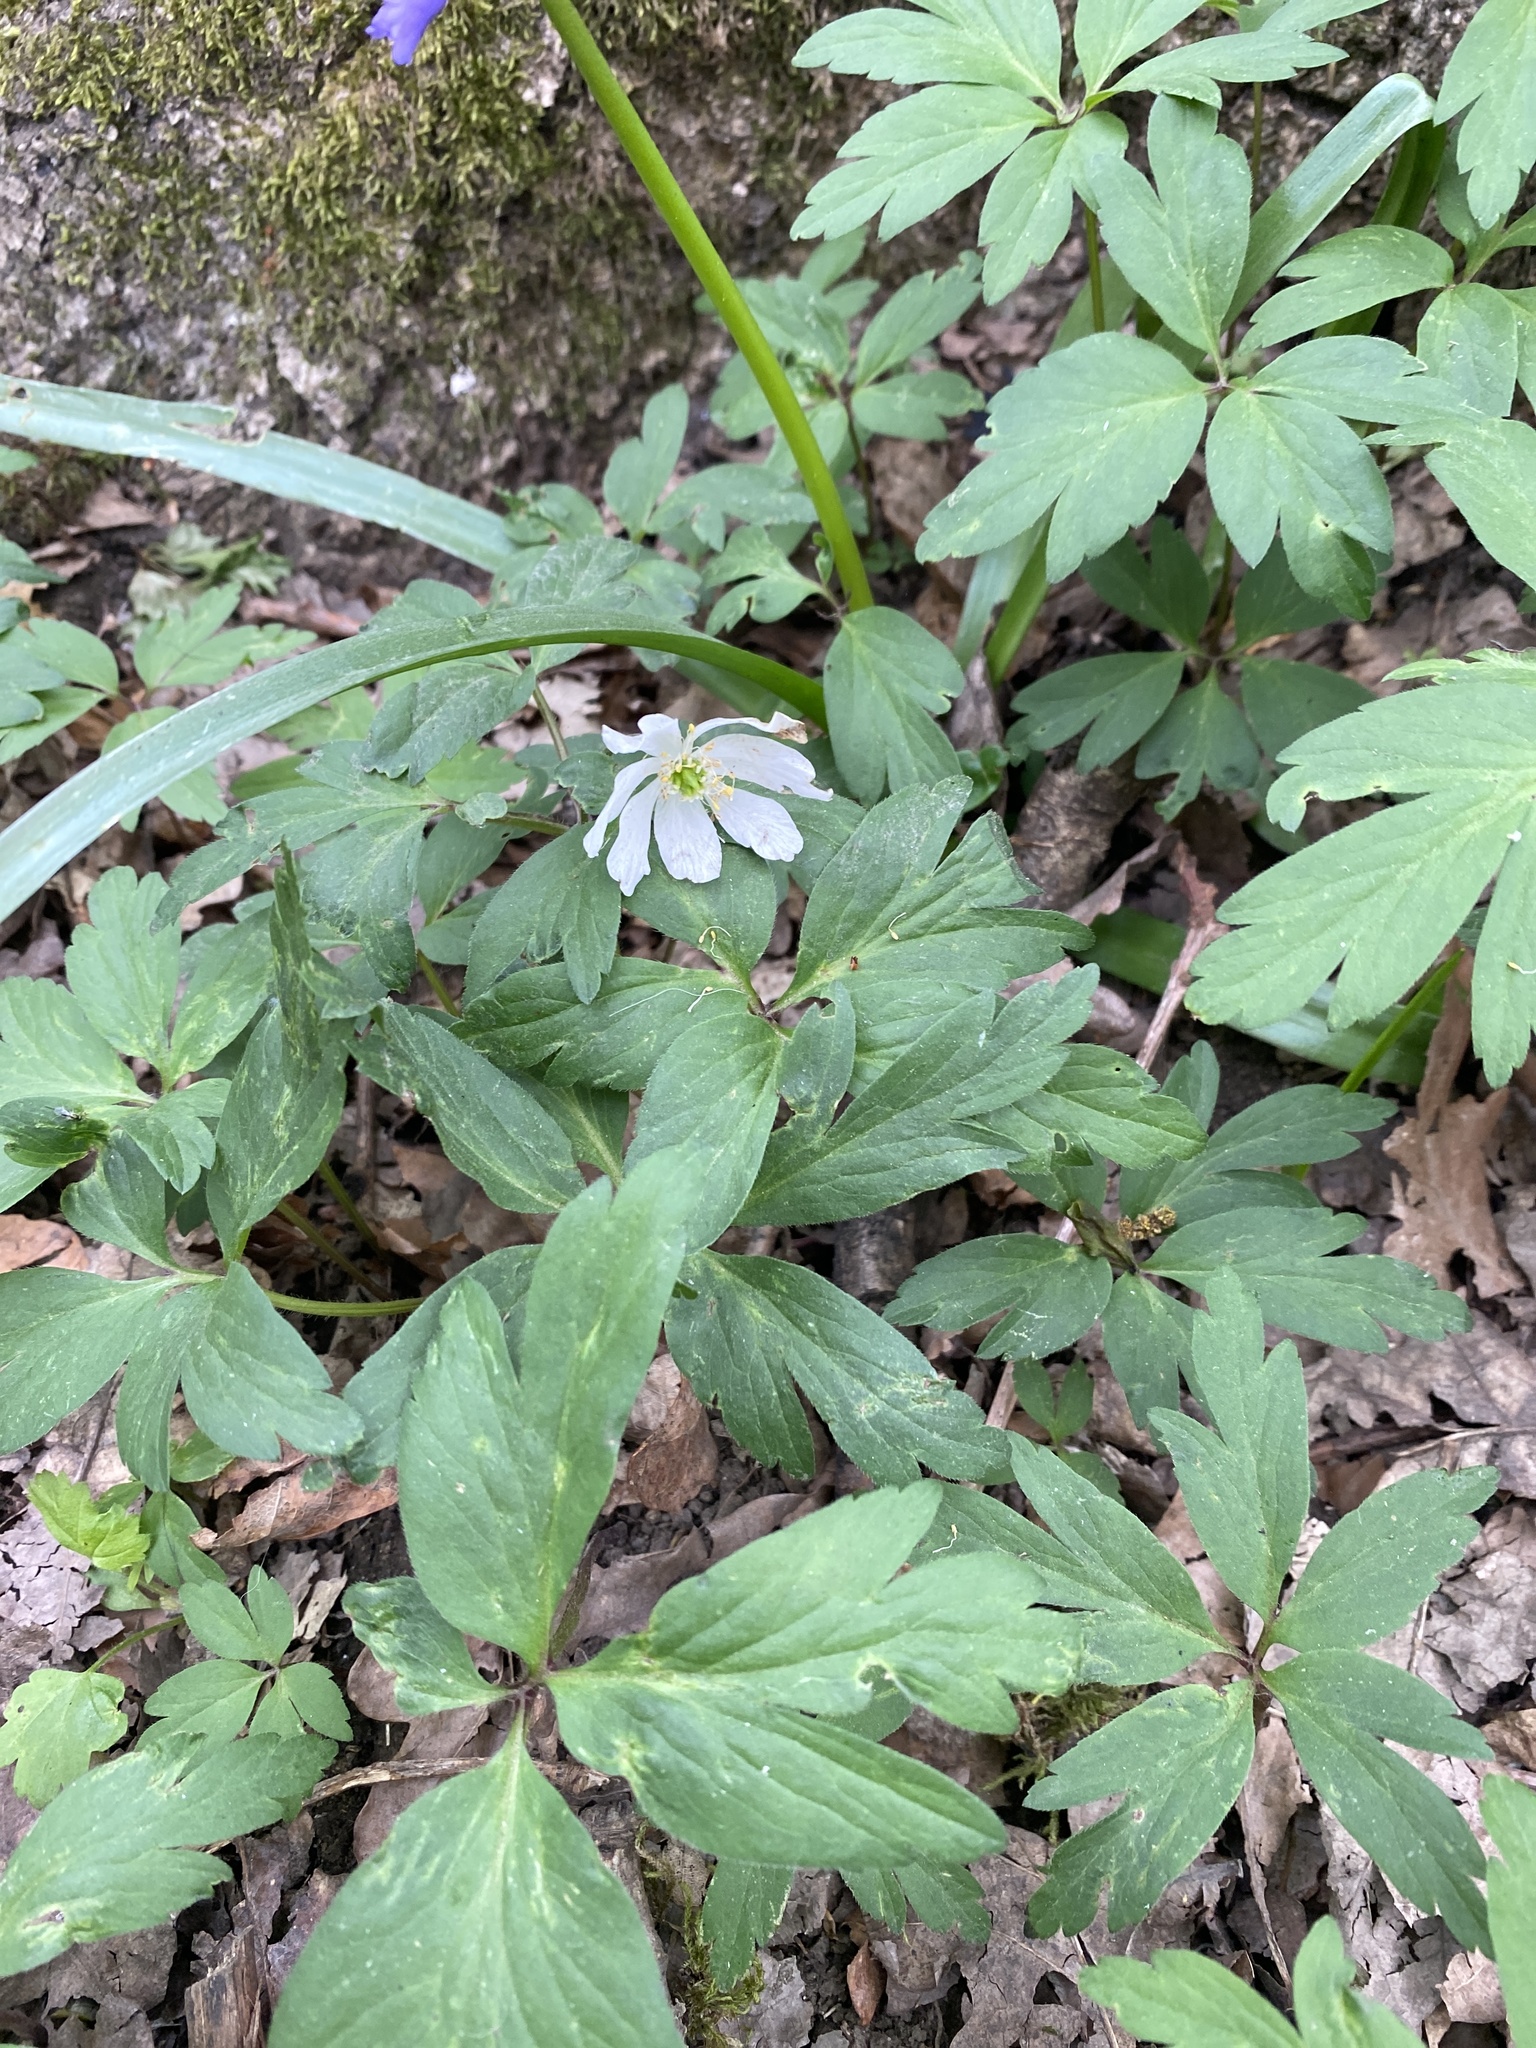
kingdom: Plantae
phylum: Tracheophyta
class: Magnoliopsida
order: Ranunculales
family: Ranunculaceae
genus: Anemone
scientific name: Anemone nemorosa
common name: Wood anemone
